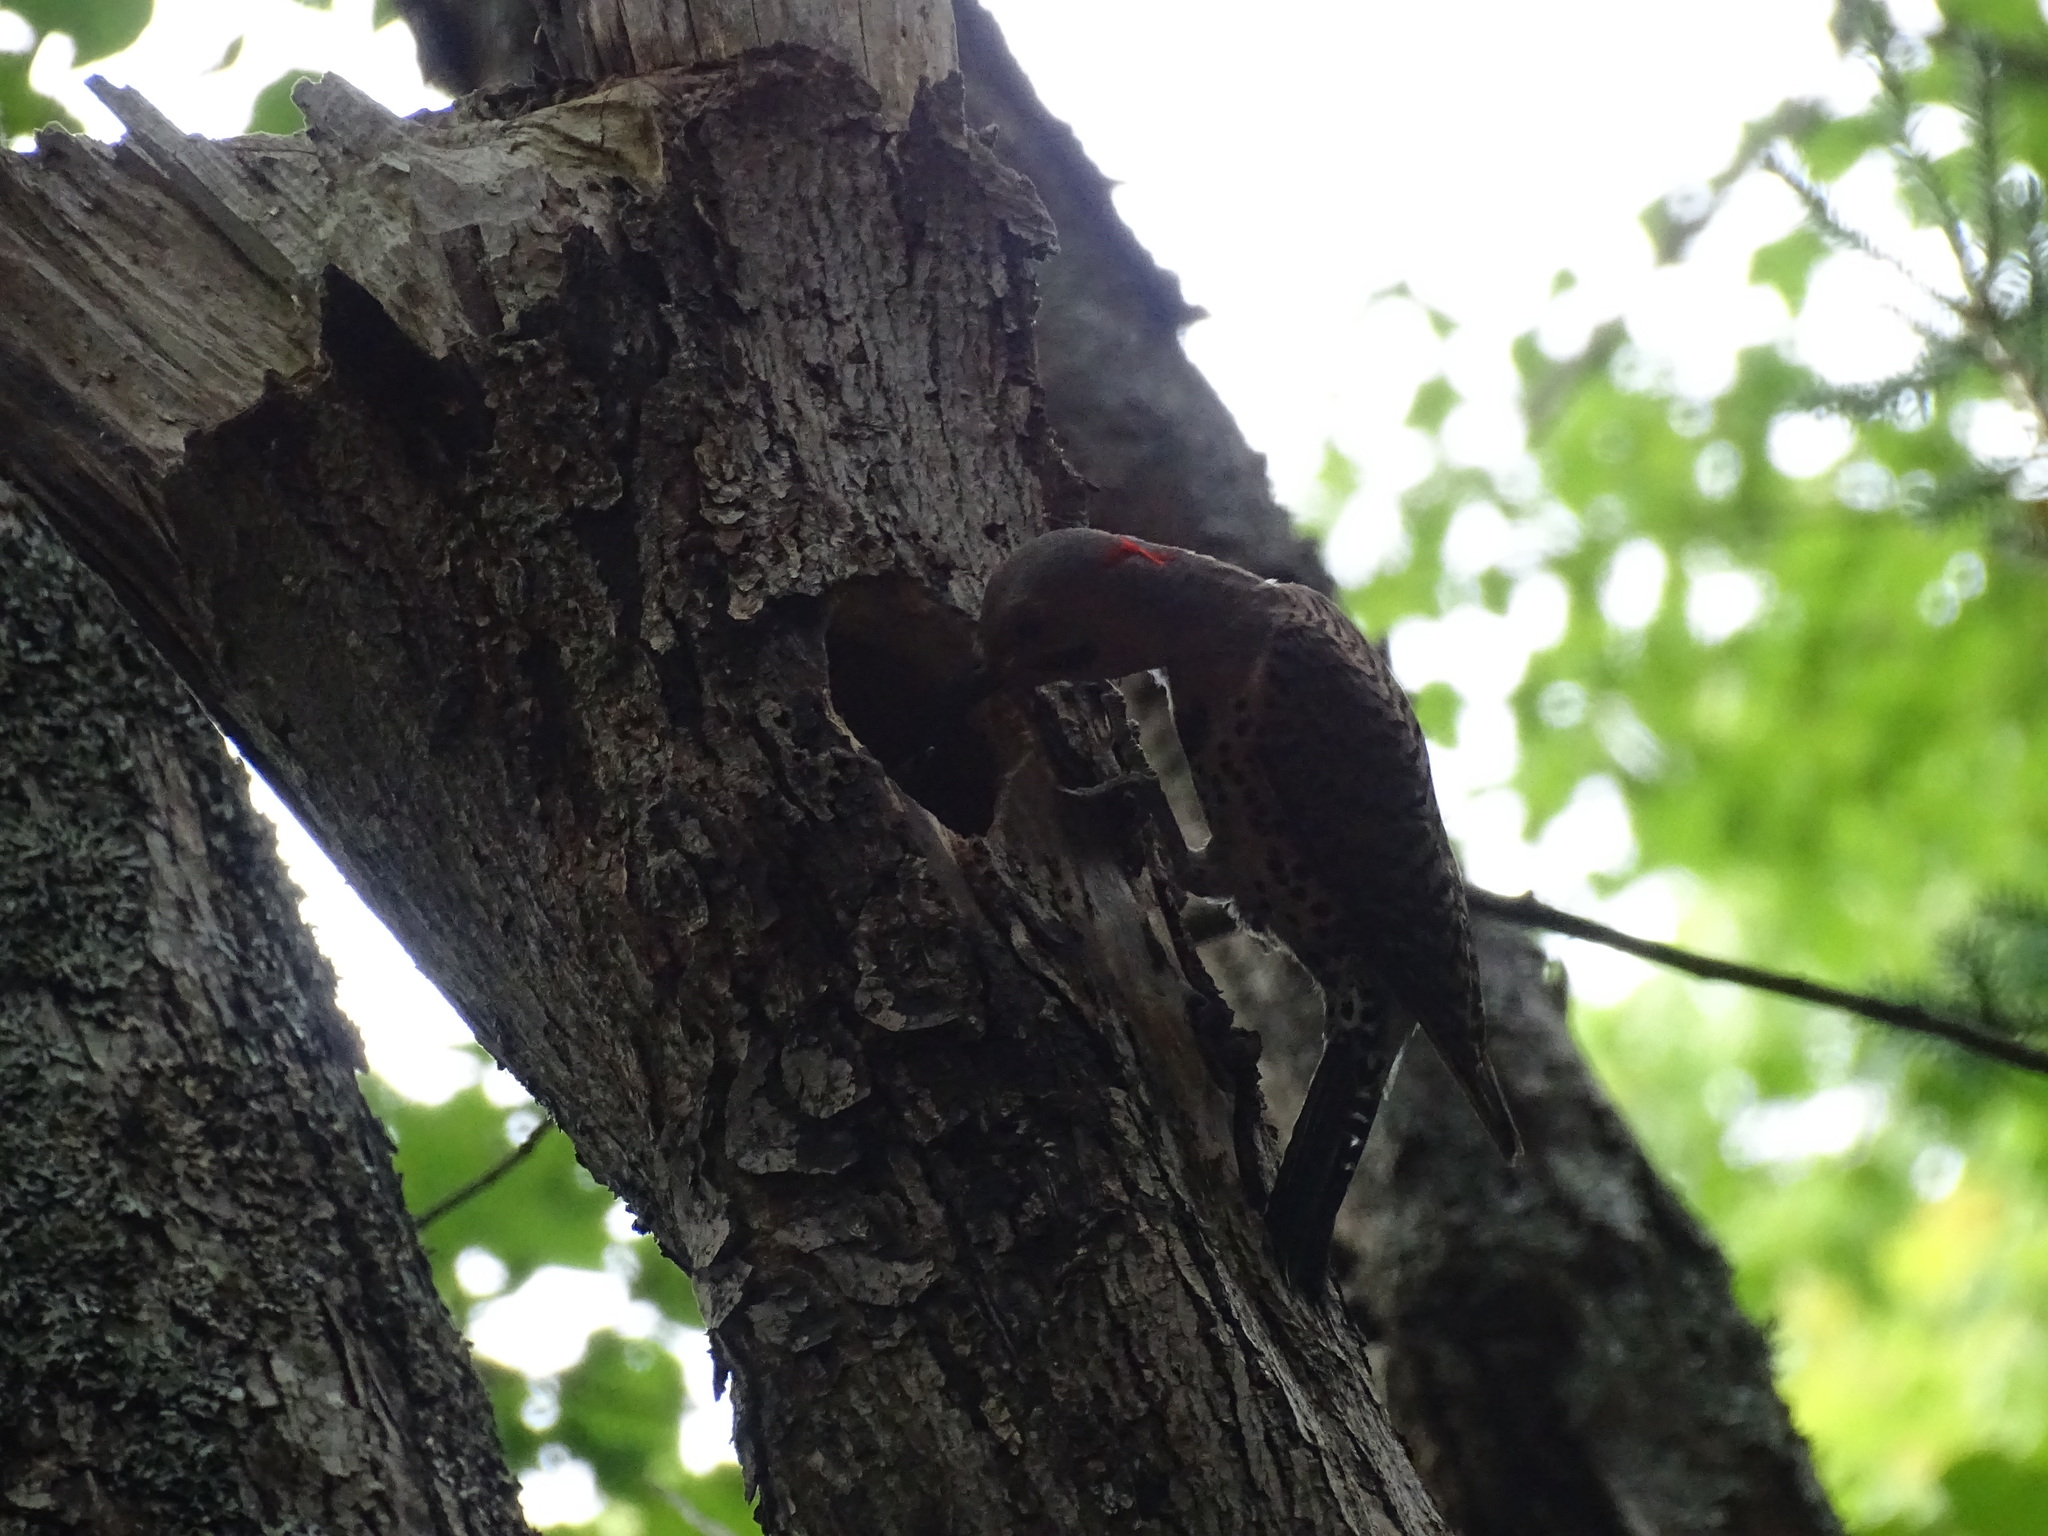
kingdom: Animalia
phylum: Chordata
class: Aves
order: Piciformes
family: Picidae
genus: Colaptes
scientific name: Colaptes auratus
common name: Northern flicker
